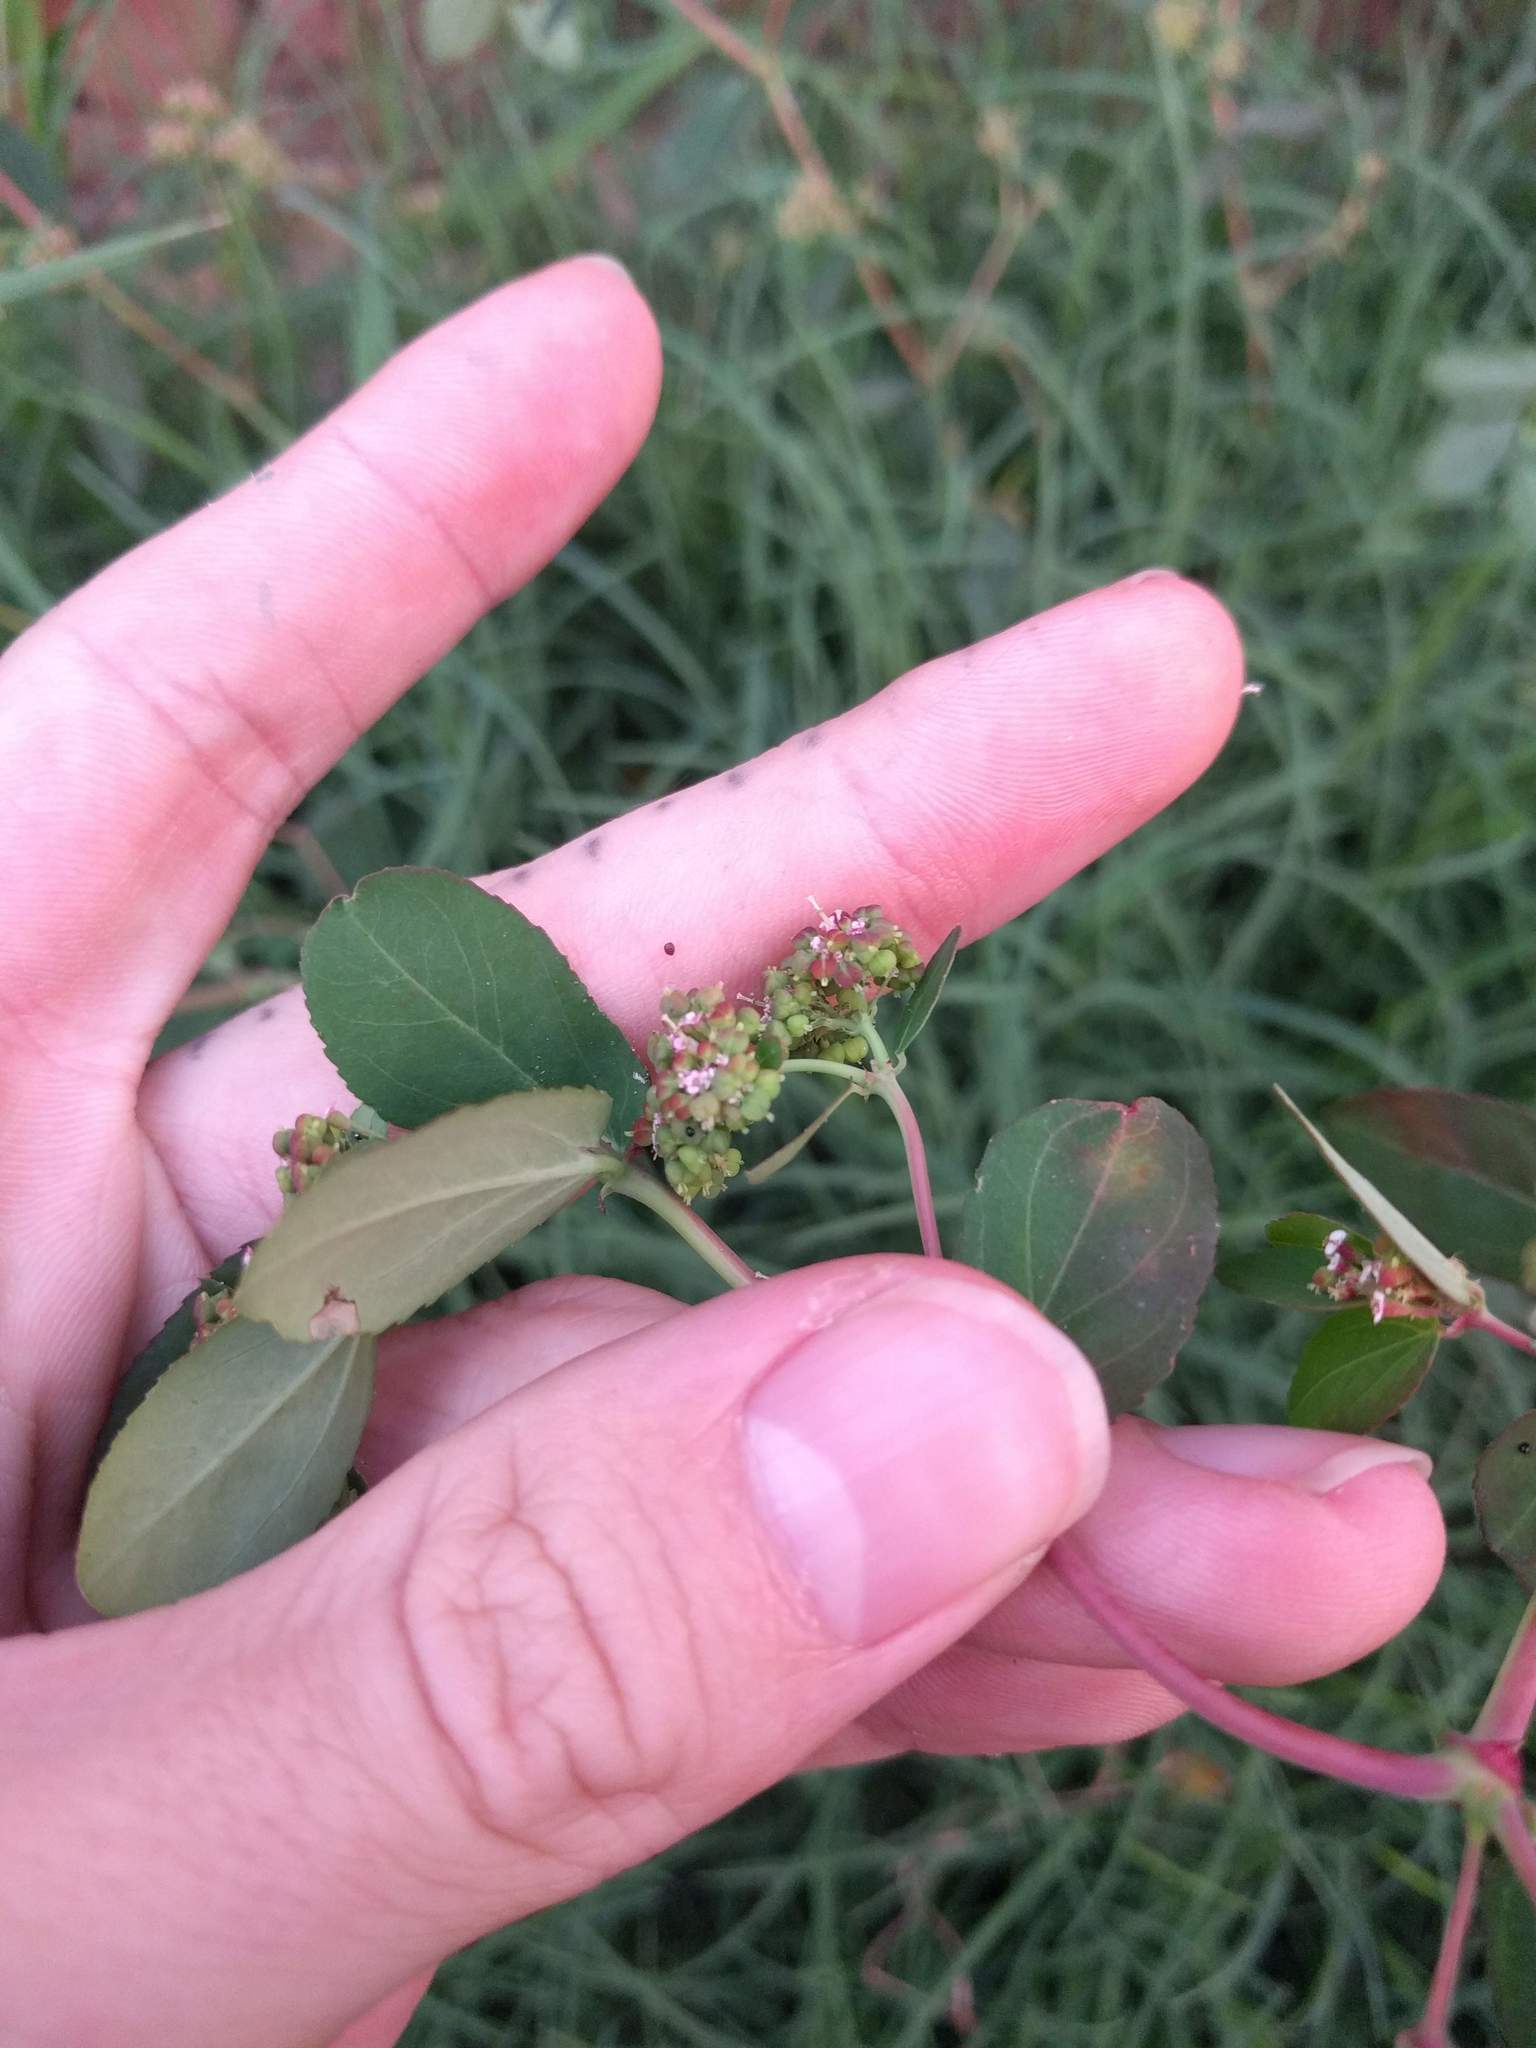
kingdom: Plantae
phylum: Tracheophyta
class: Magnoliopsida
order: Malpighiales
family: Euphorbiaceae
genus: Euphorbia
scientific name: Euphorbia hypericifolia
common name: Graceful sandmat
